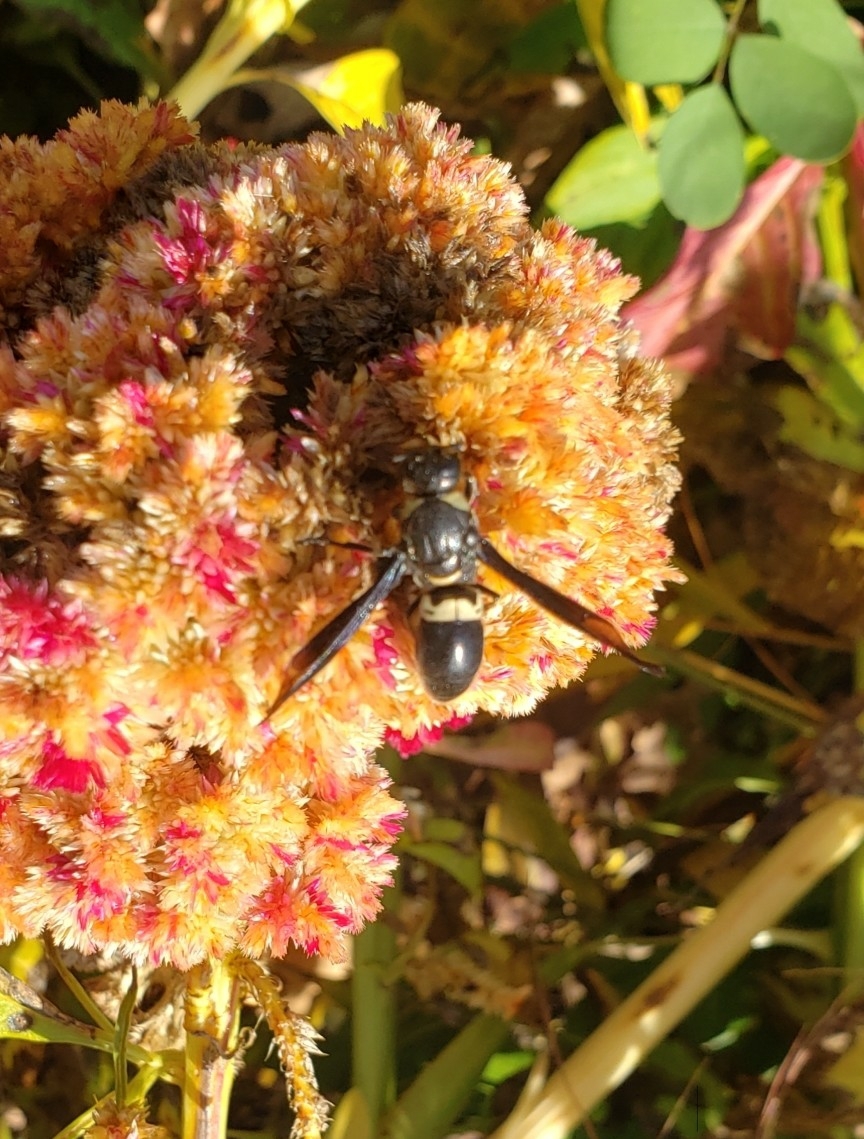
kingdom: Animalia
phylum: Arthropoda
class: Insecta
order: Hymenoptera
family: Eumenidae
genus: Monobia
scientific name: Monobia quadridens
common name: Four-toothed mason wasp
